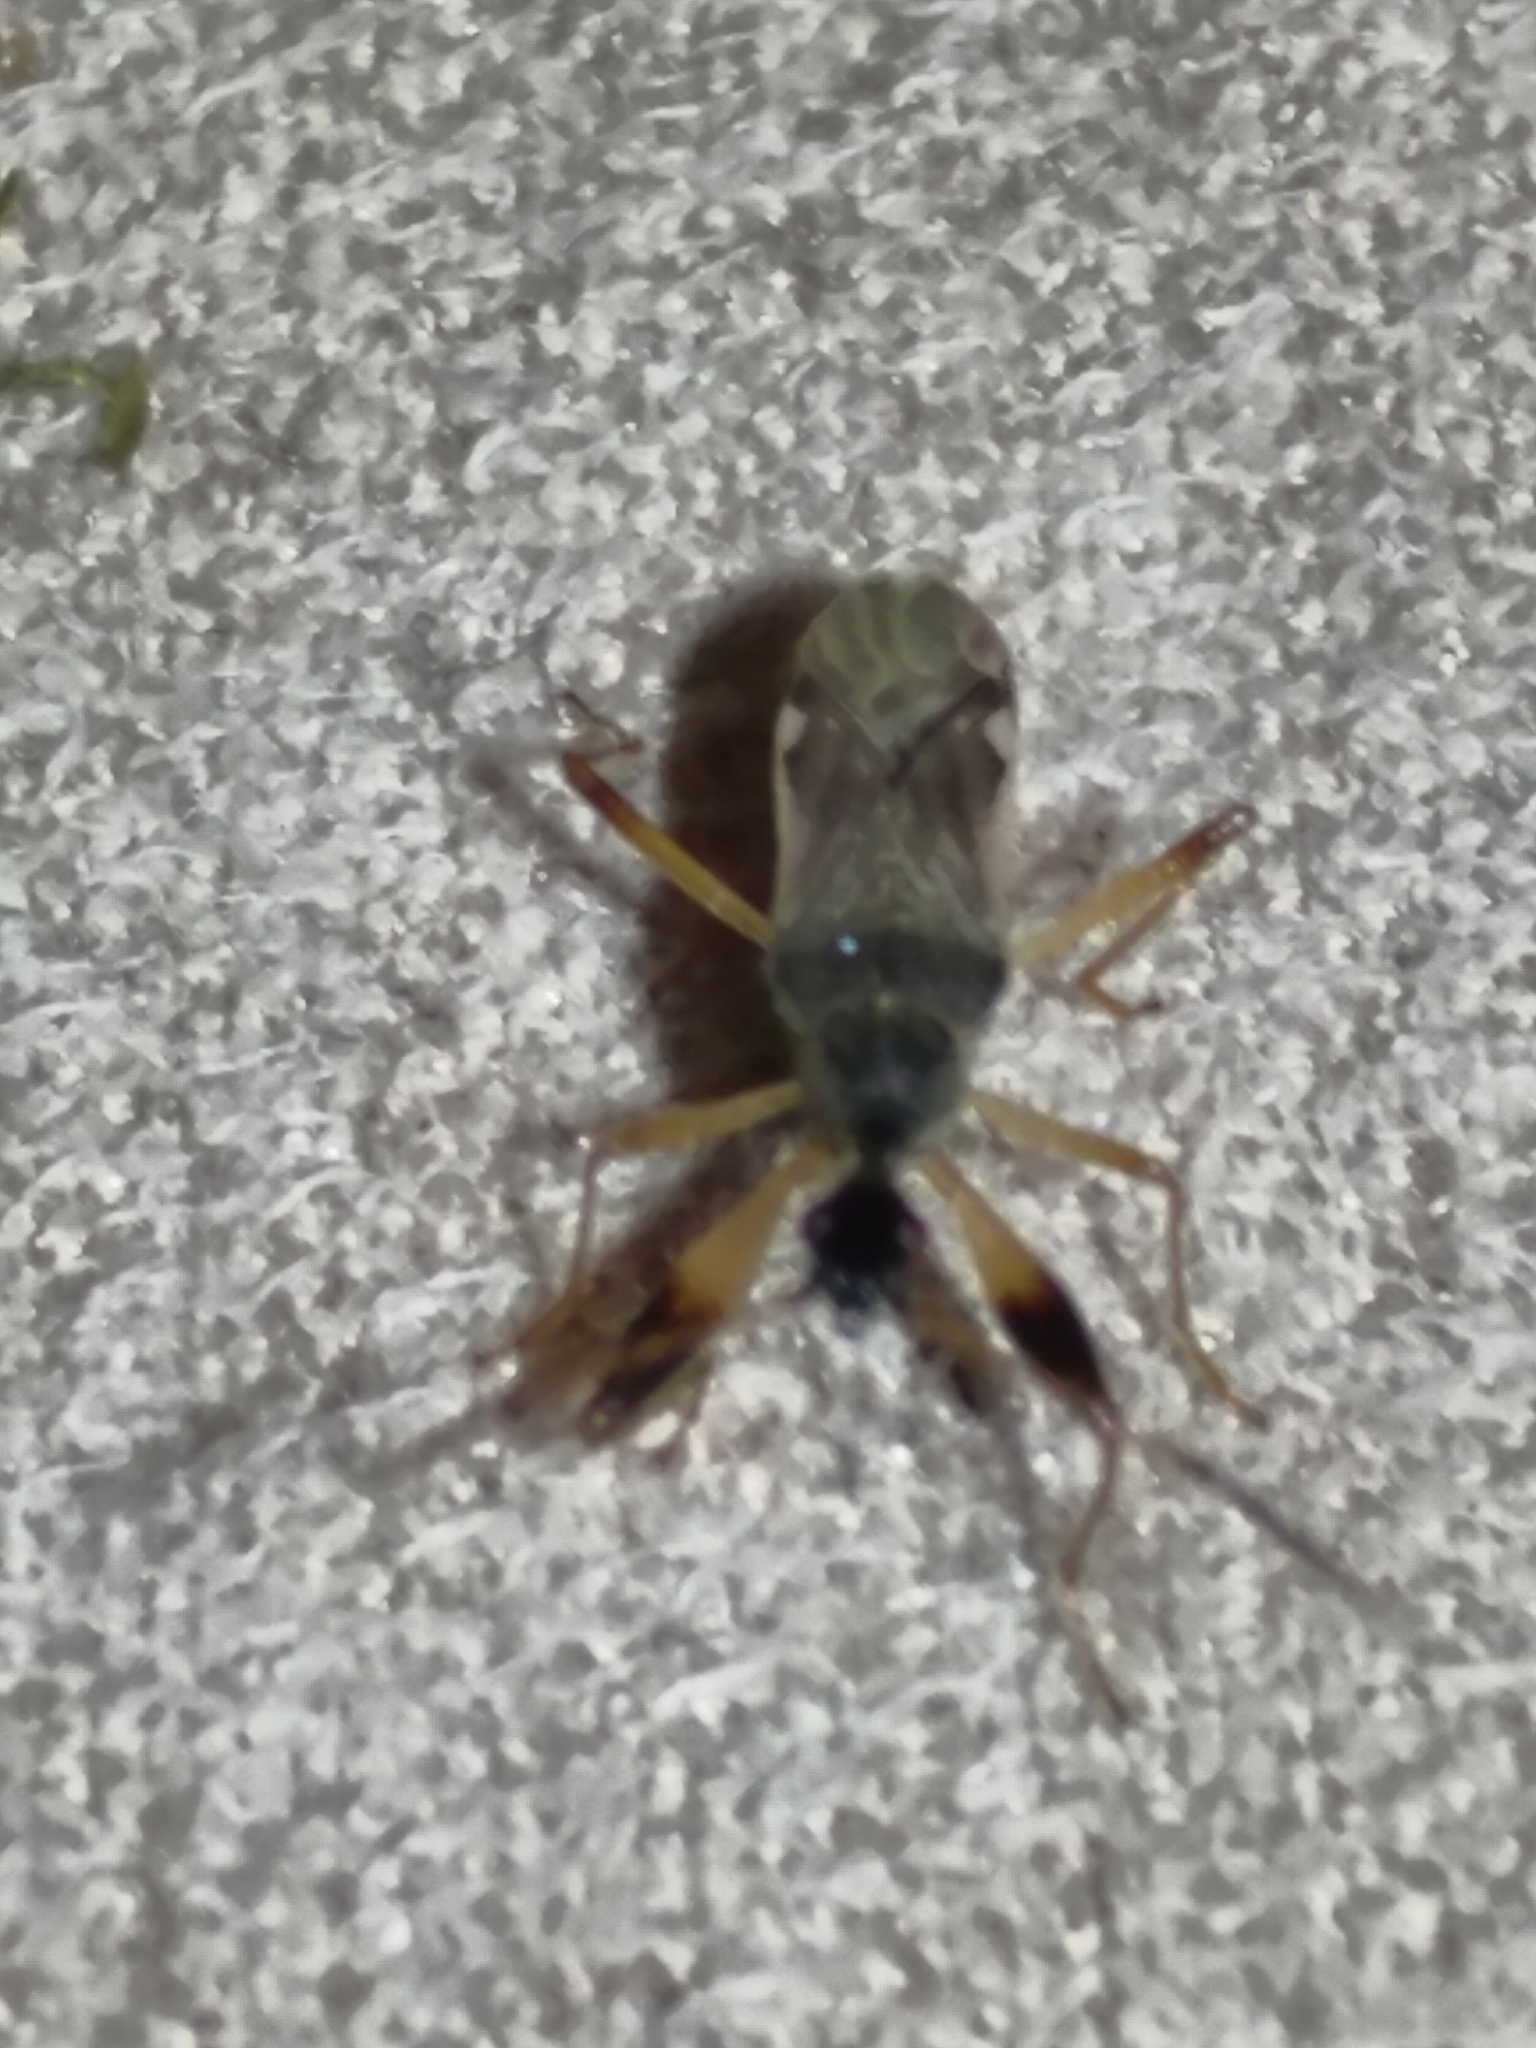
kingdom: Animalia
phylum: Arthropoda
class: Insecta
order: Hemiptera
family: Rhyparochromidae
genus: Myodocha
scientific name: Myodocha serripes
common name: Long-necked seed bug
